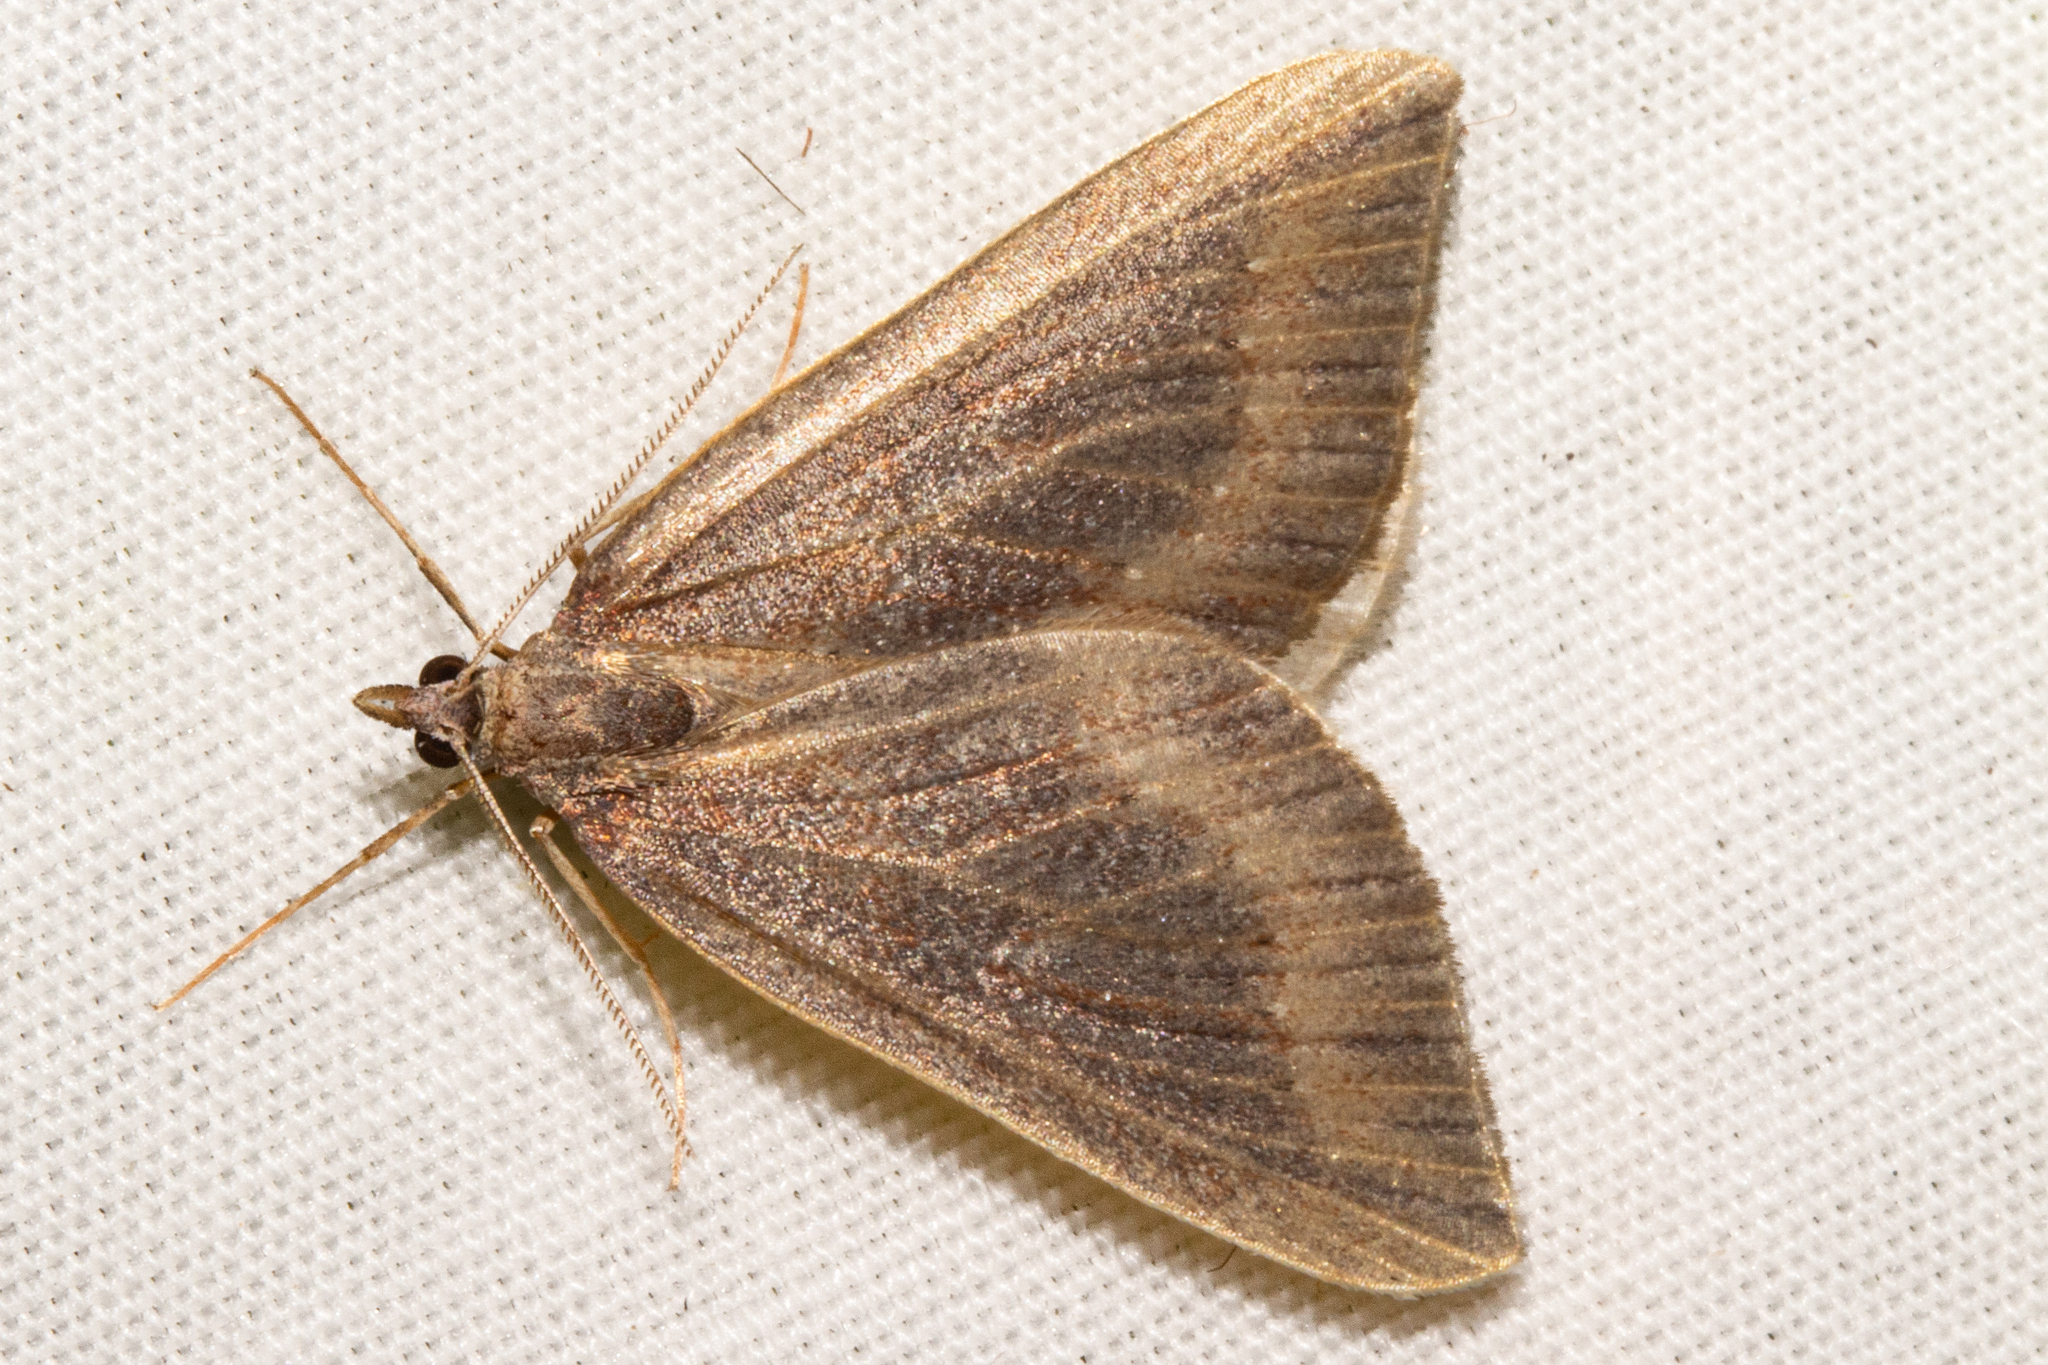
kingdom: Animalia
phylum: Arthropoda
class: Insecta
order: Lepidoptera
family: Geometridae
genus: Xanthorhoe
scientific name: Xanthorhoe occulta
